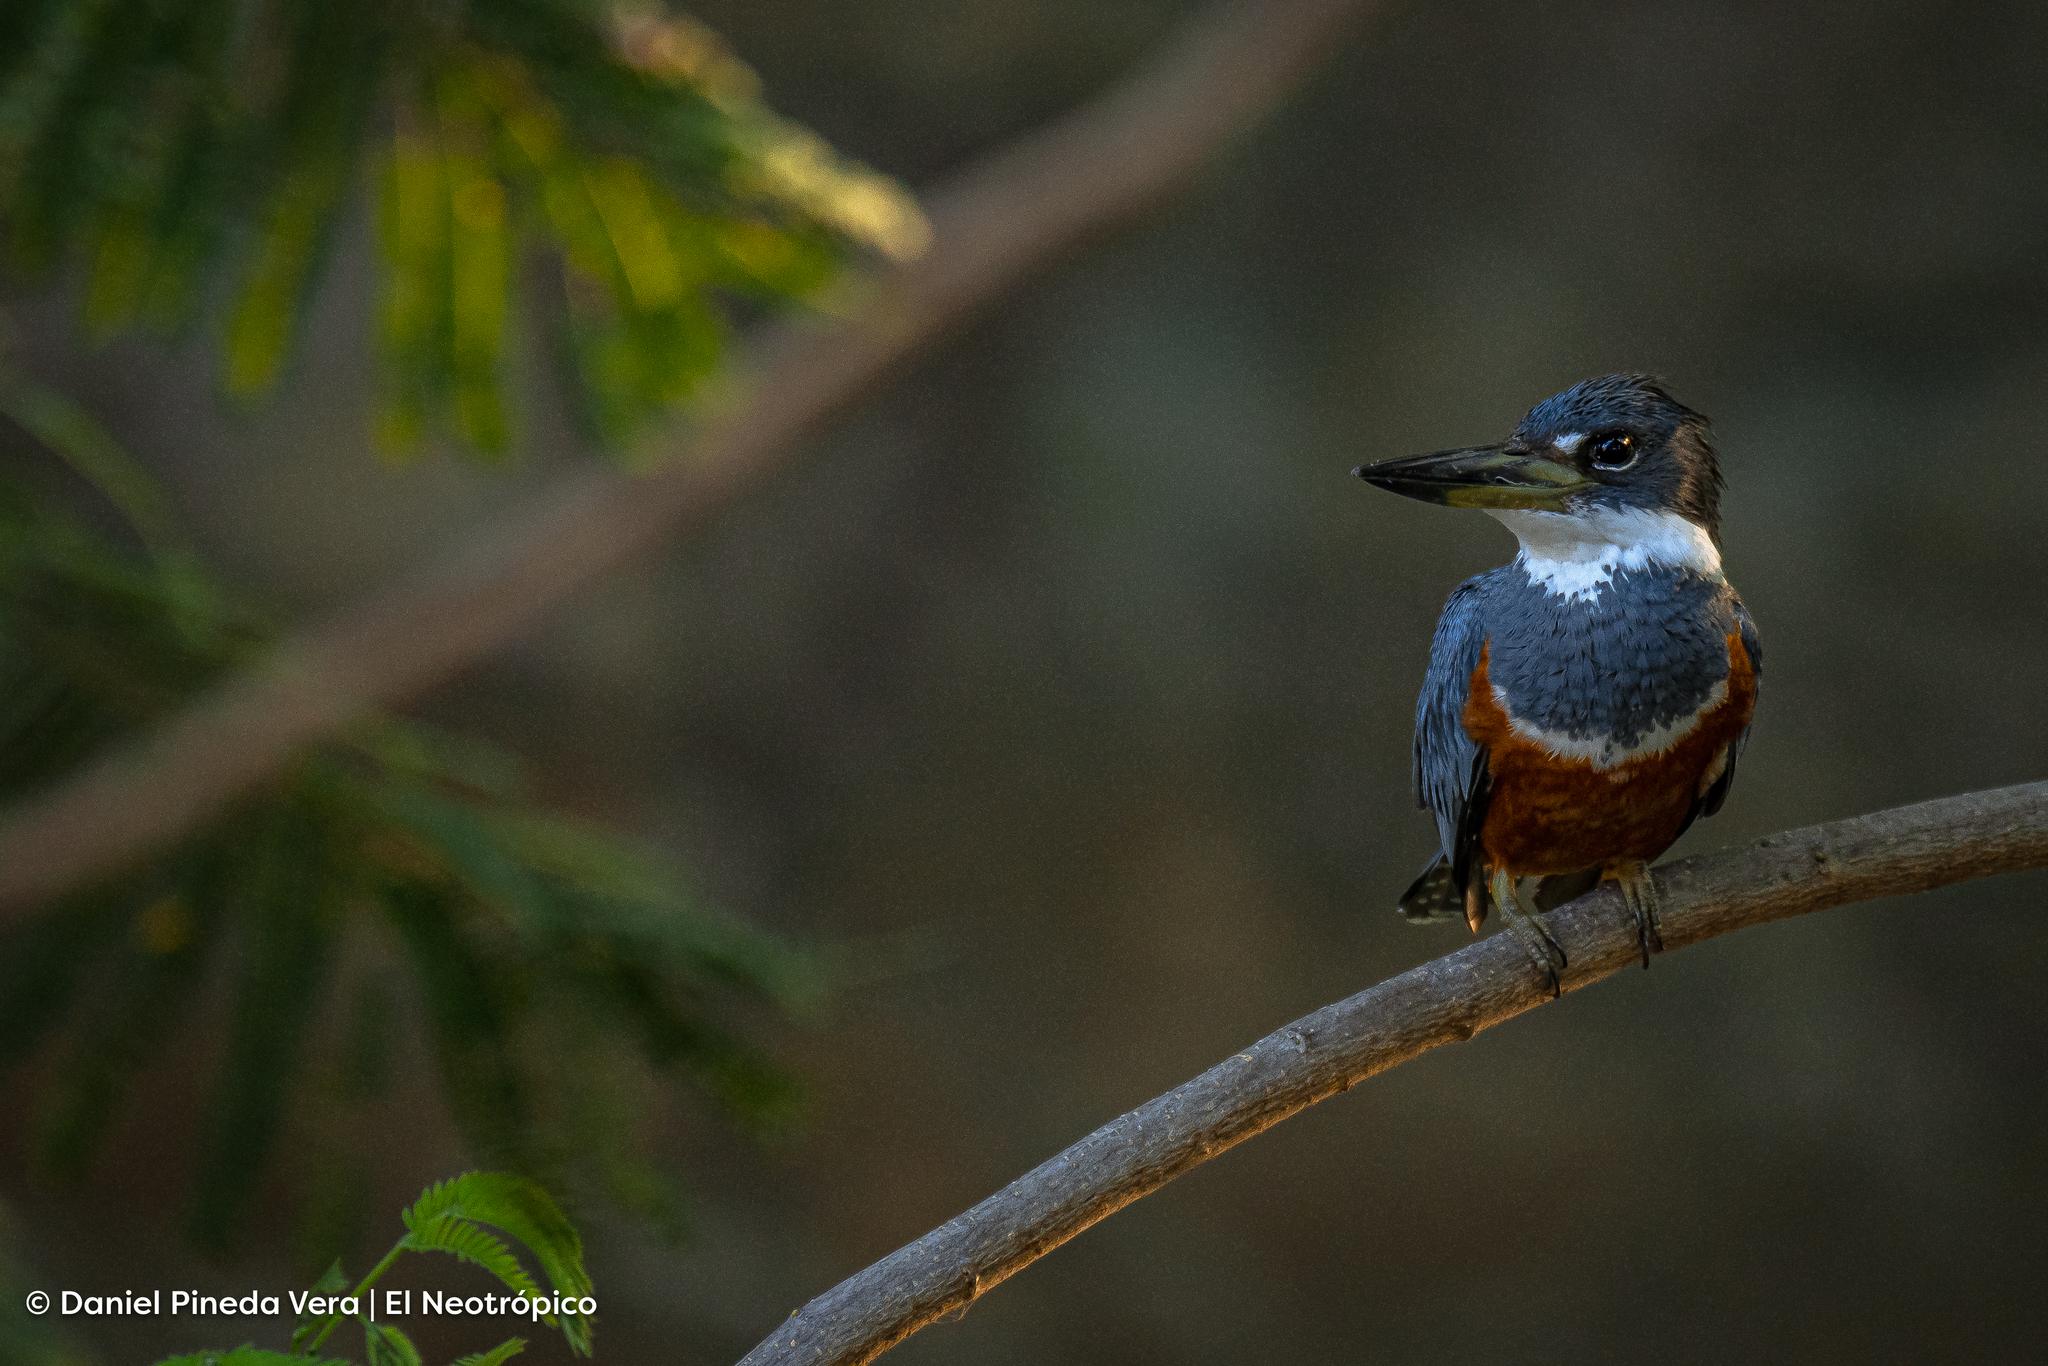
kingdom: Animalia
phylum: Chordata
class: Aves
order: Coraciiformes
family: Alcedinidae
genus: Megaceryle
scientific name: Megaceryle torquata
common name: Ringed kingfisher
